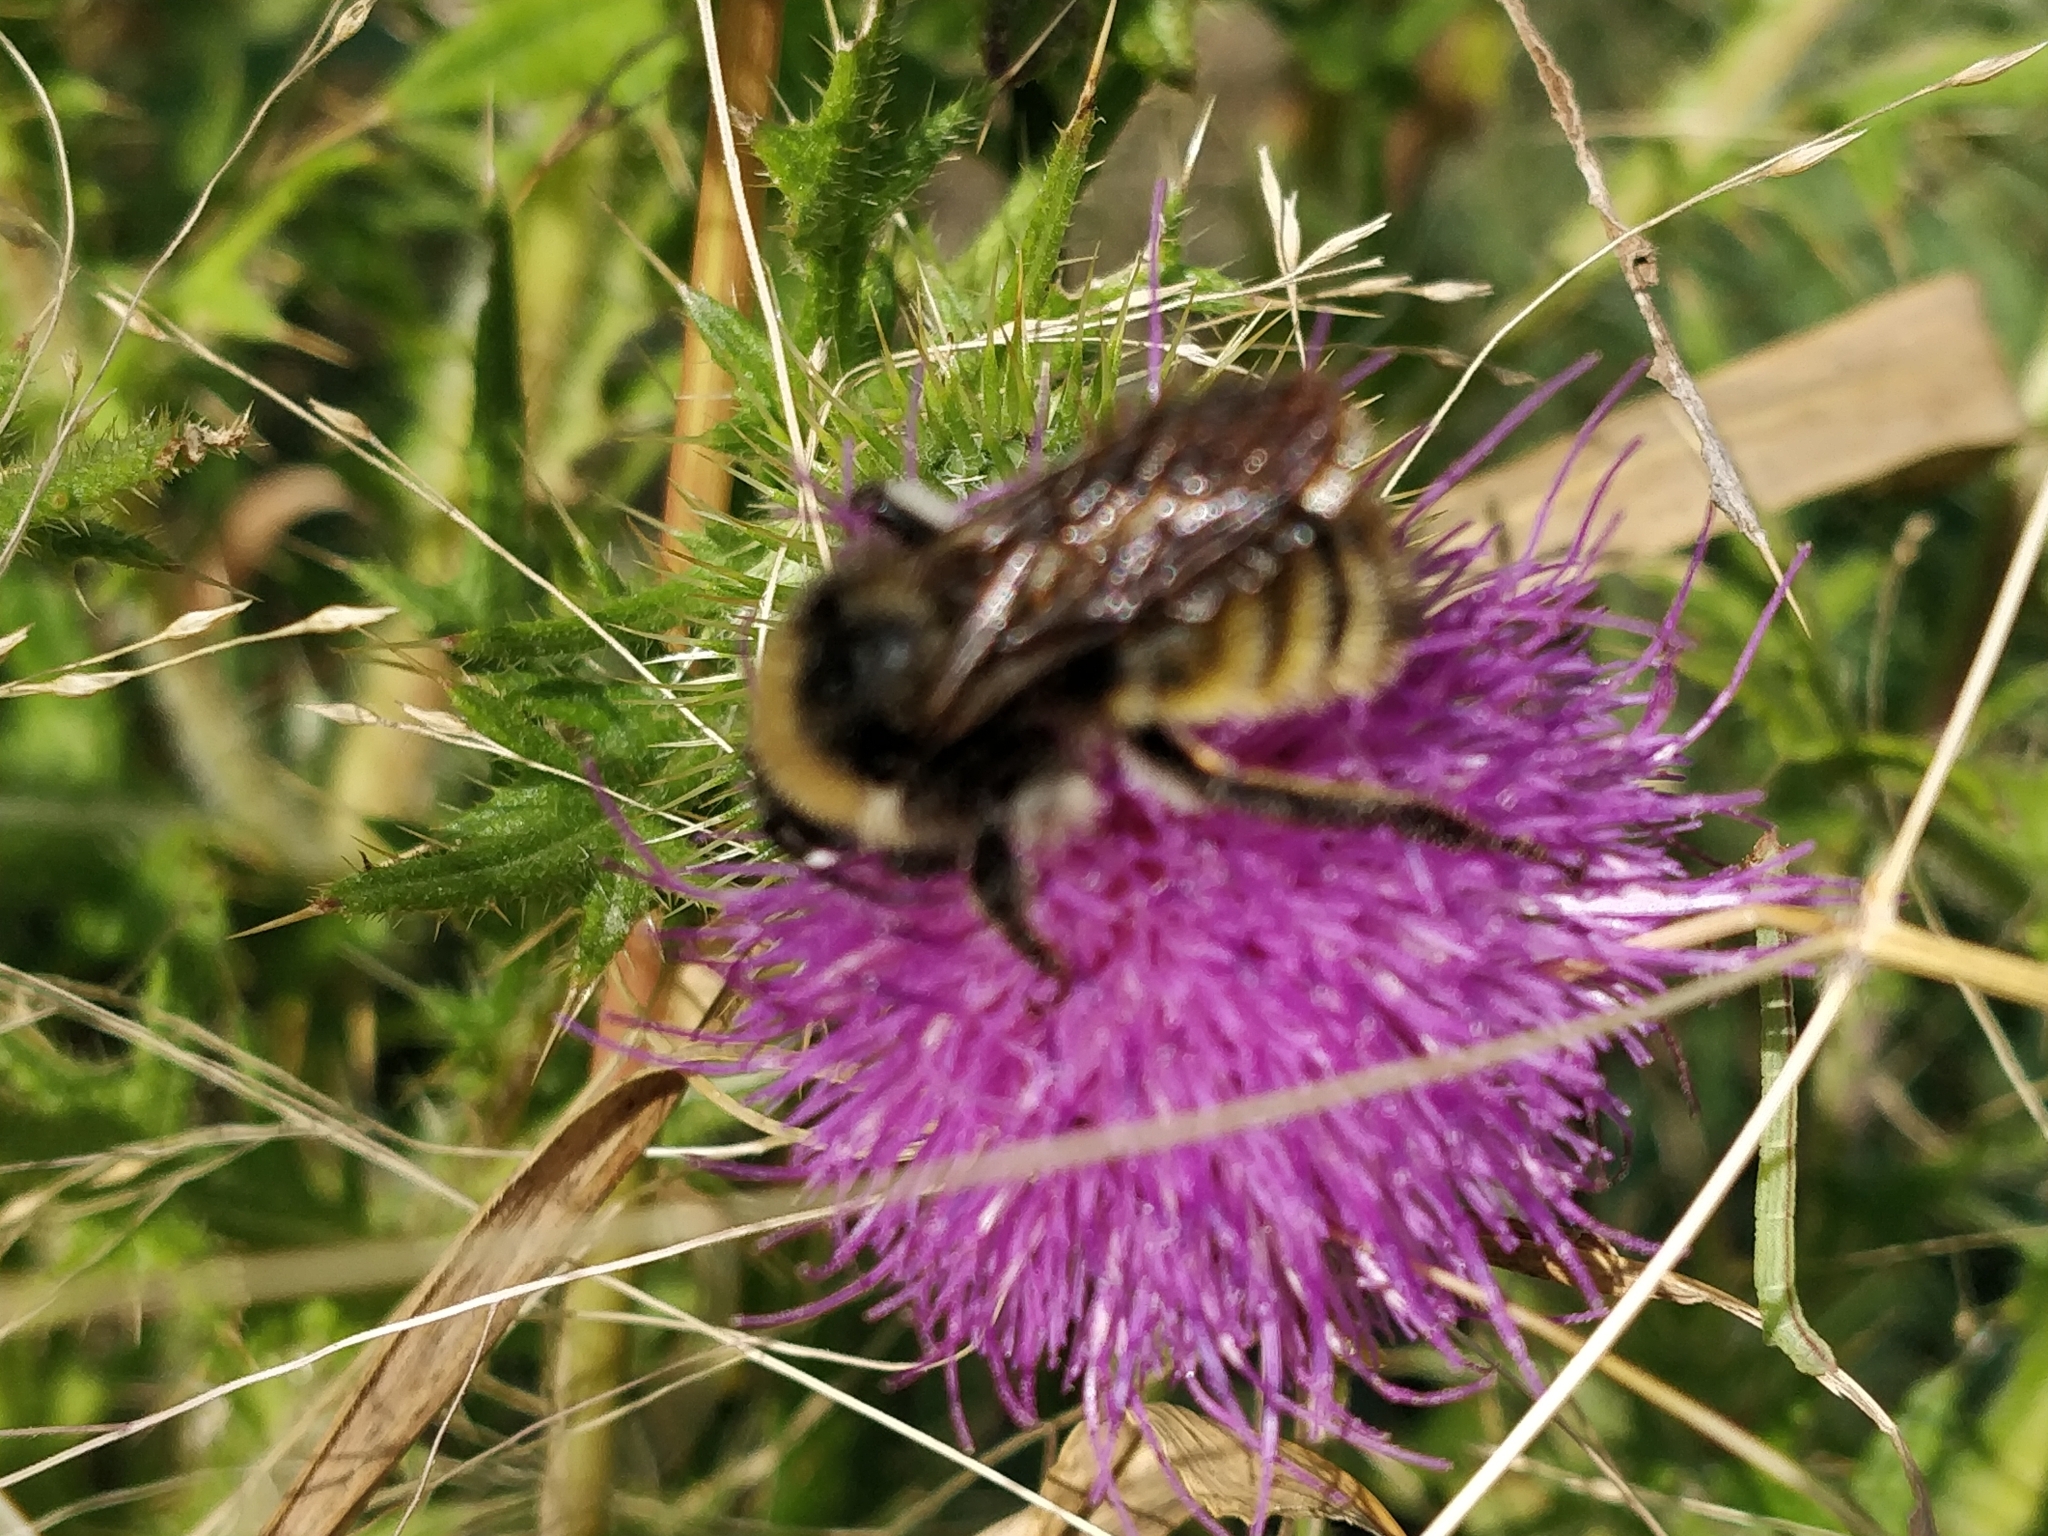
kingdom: Animalia
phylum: Arthropoda
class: Insecta
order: Hymenoptera
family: Apidae
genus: Bombus
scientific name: Bombus pensylvanicus
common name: Bumble bee
